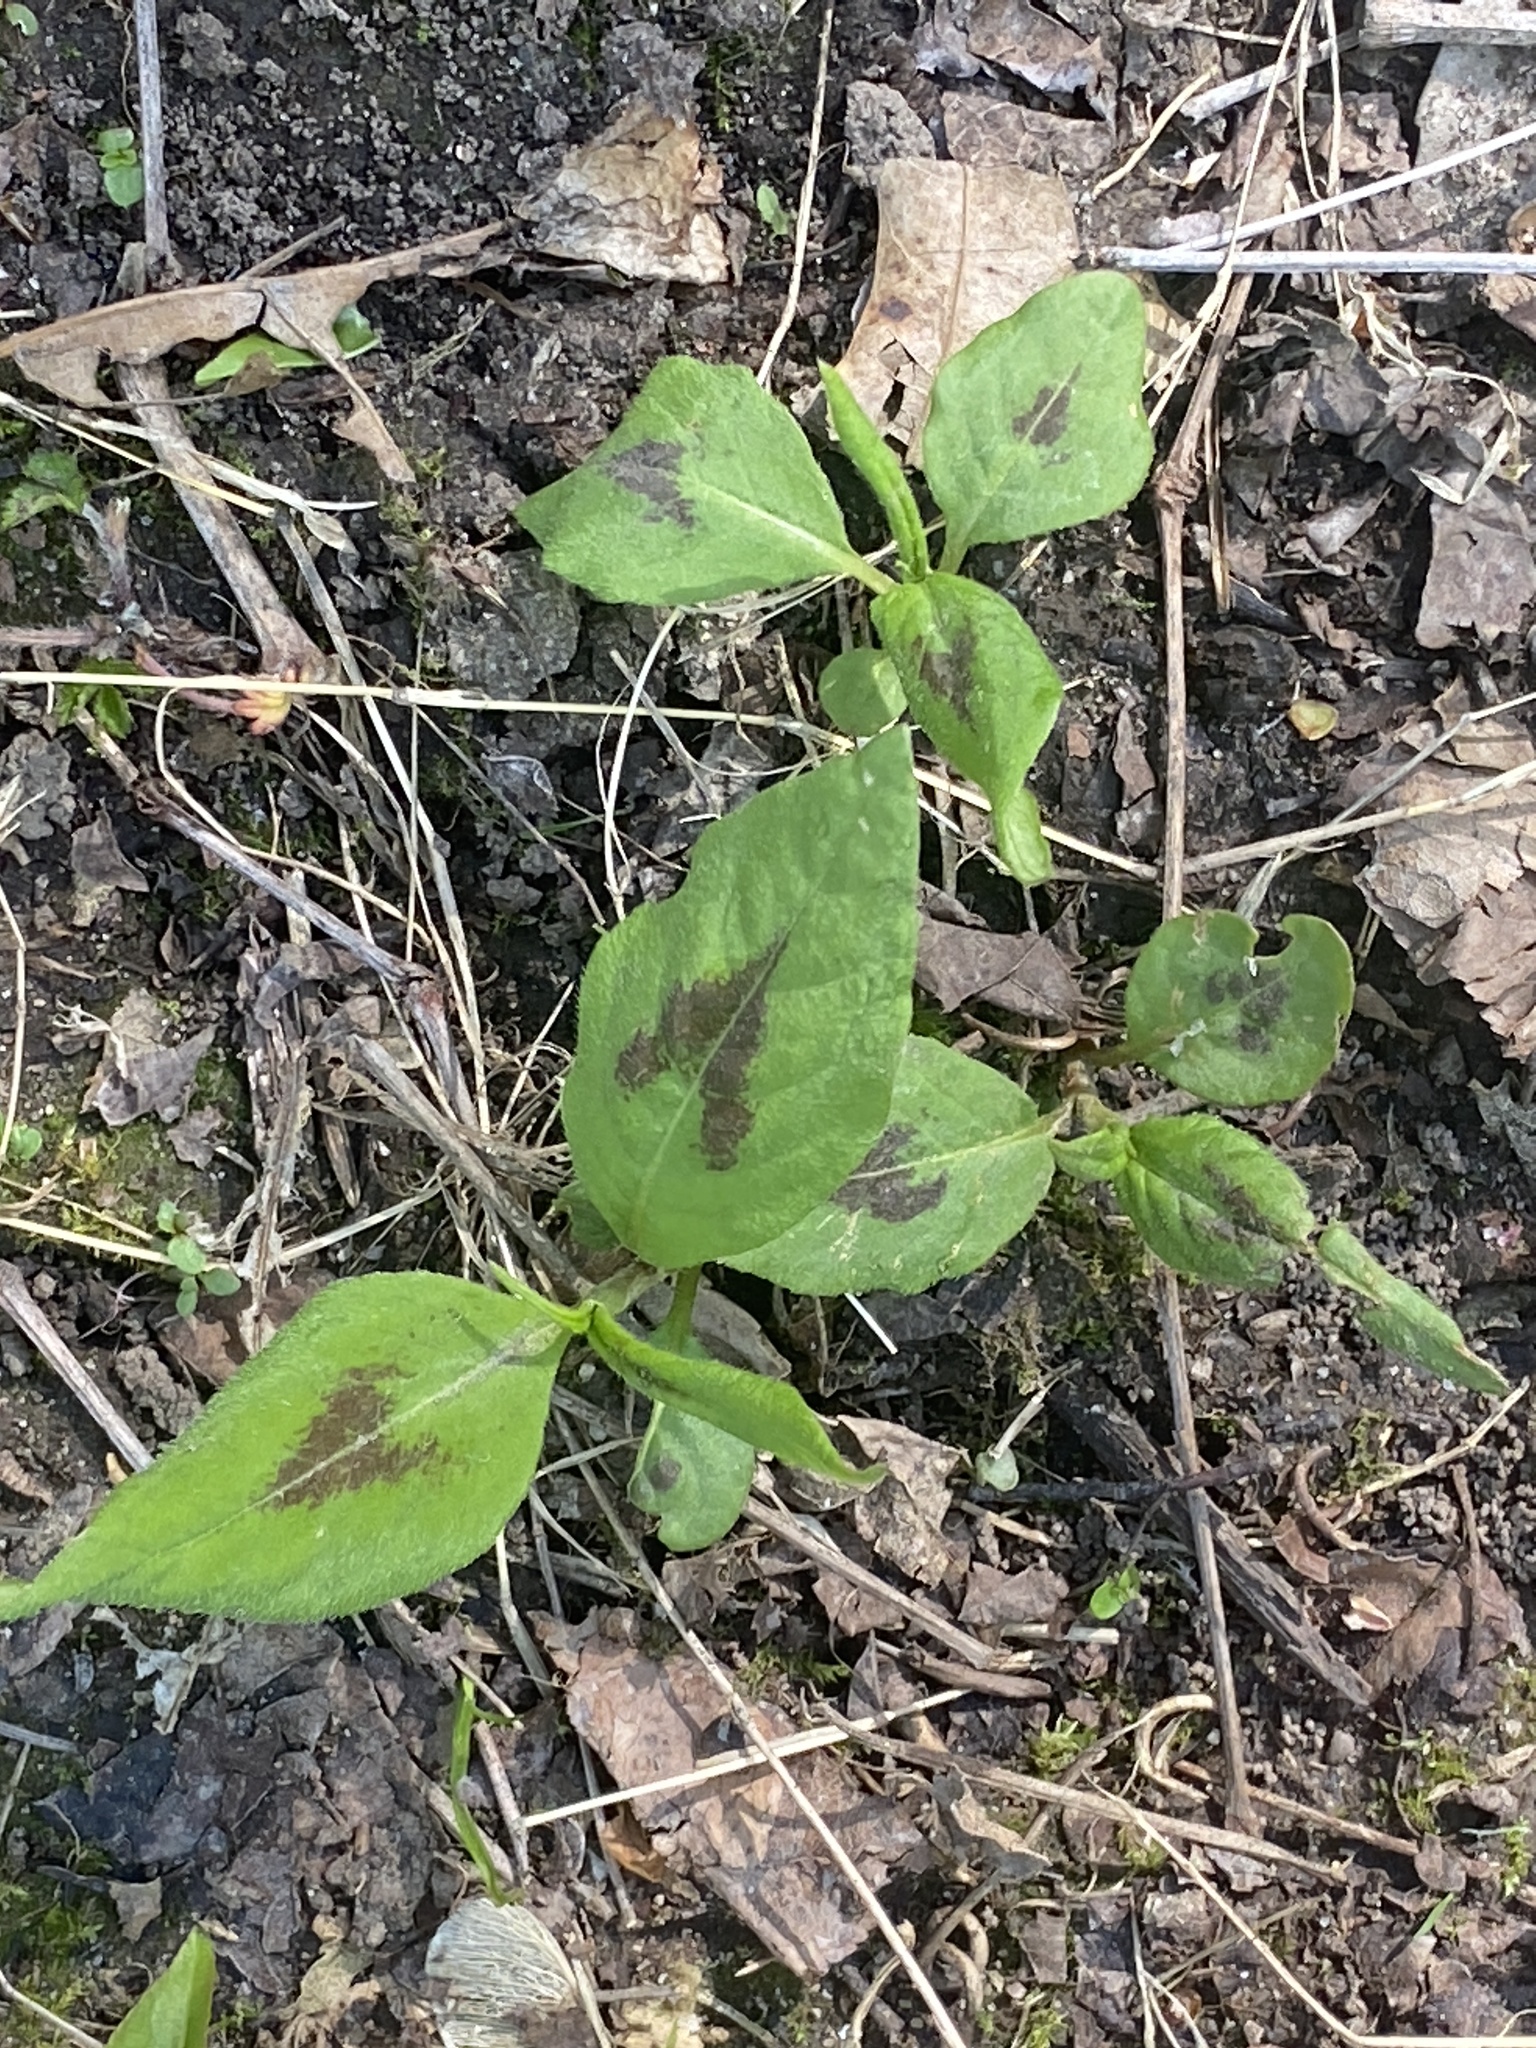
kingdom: Plantae
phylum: Tracheophyta
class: Magnoliopsida
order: Caryophyllales
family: Polygonaceae
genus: Persicaria
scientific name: Persicaria virginiana
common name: Jumpseed
